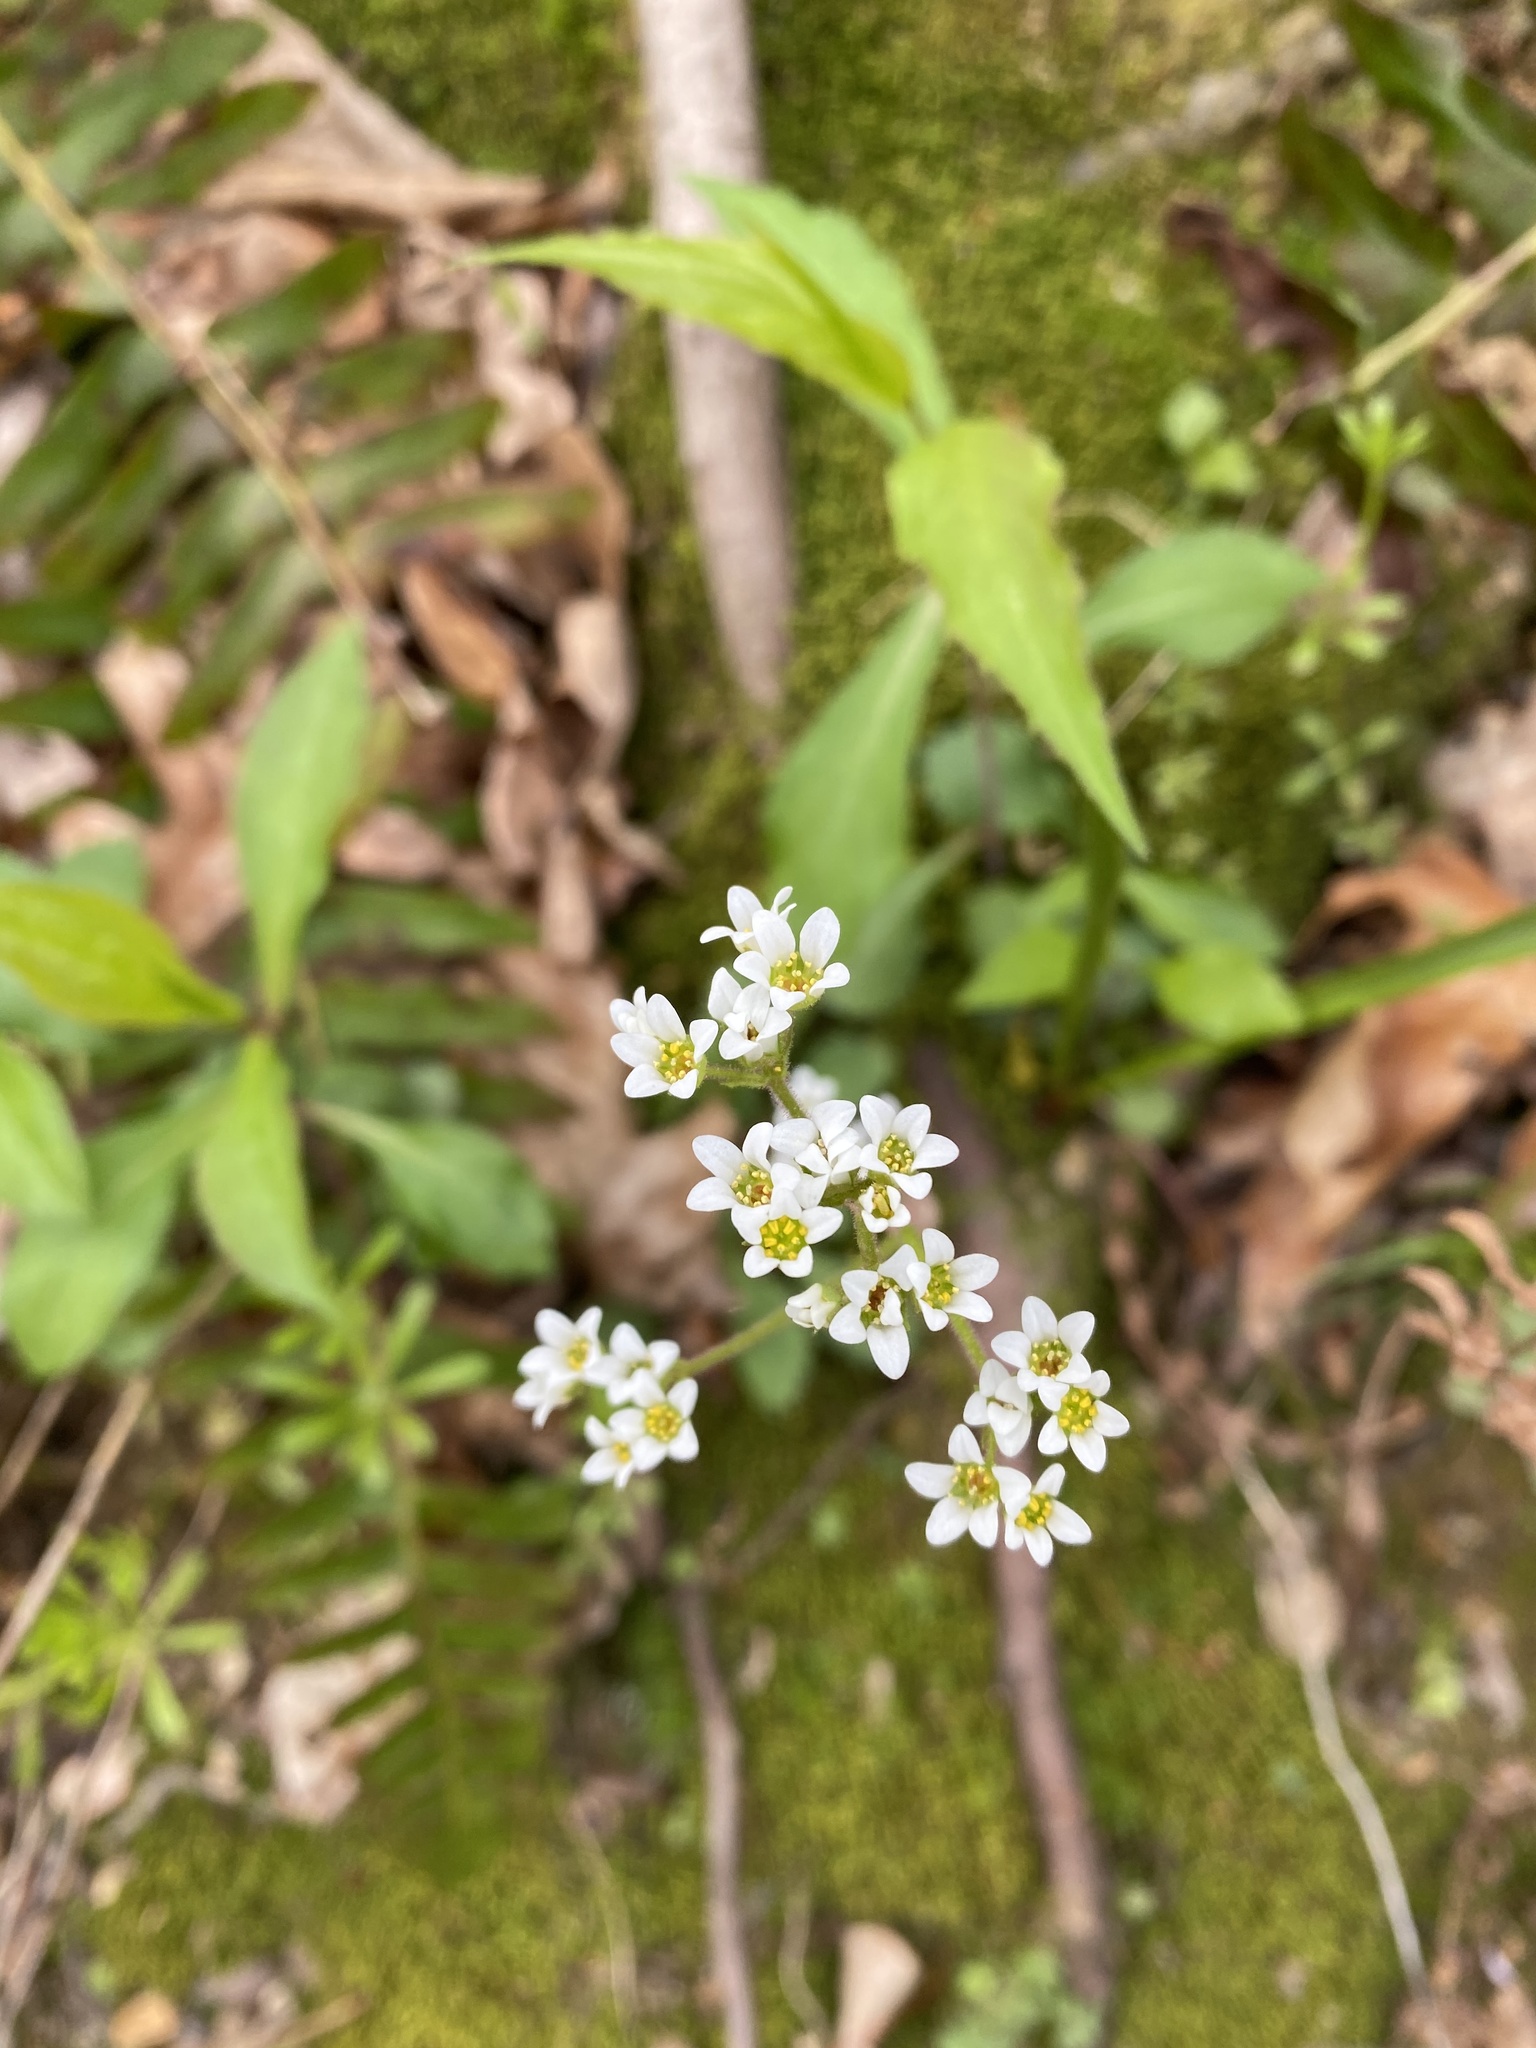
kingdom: Plantae
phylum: Tracheophyta
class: Magnoliopsida
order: Saxifragales
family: Saxifragaceae
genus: Micranthes
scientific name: Micranthes virginiensis
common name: Early saxifrage
